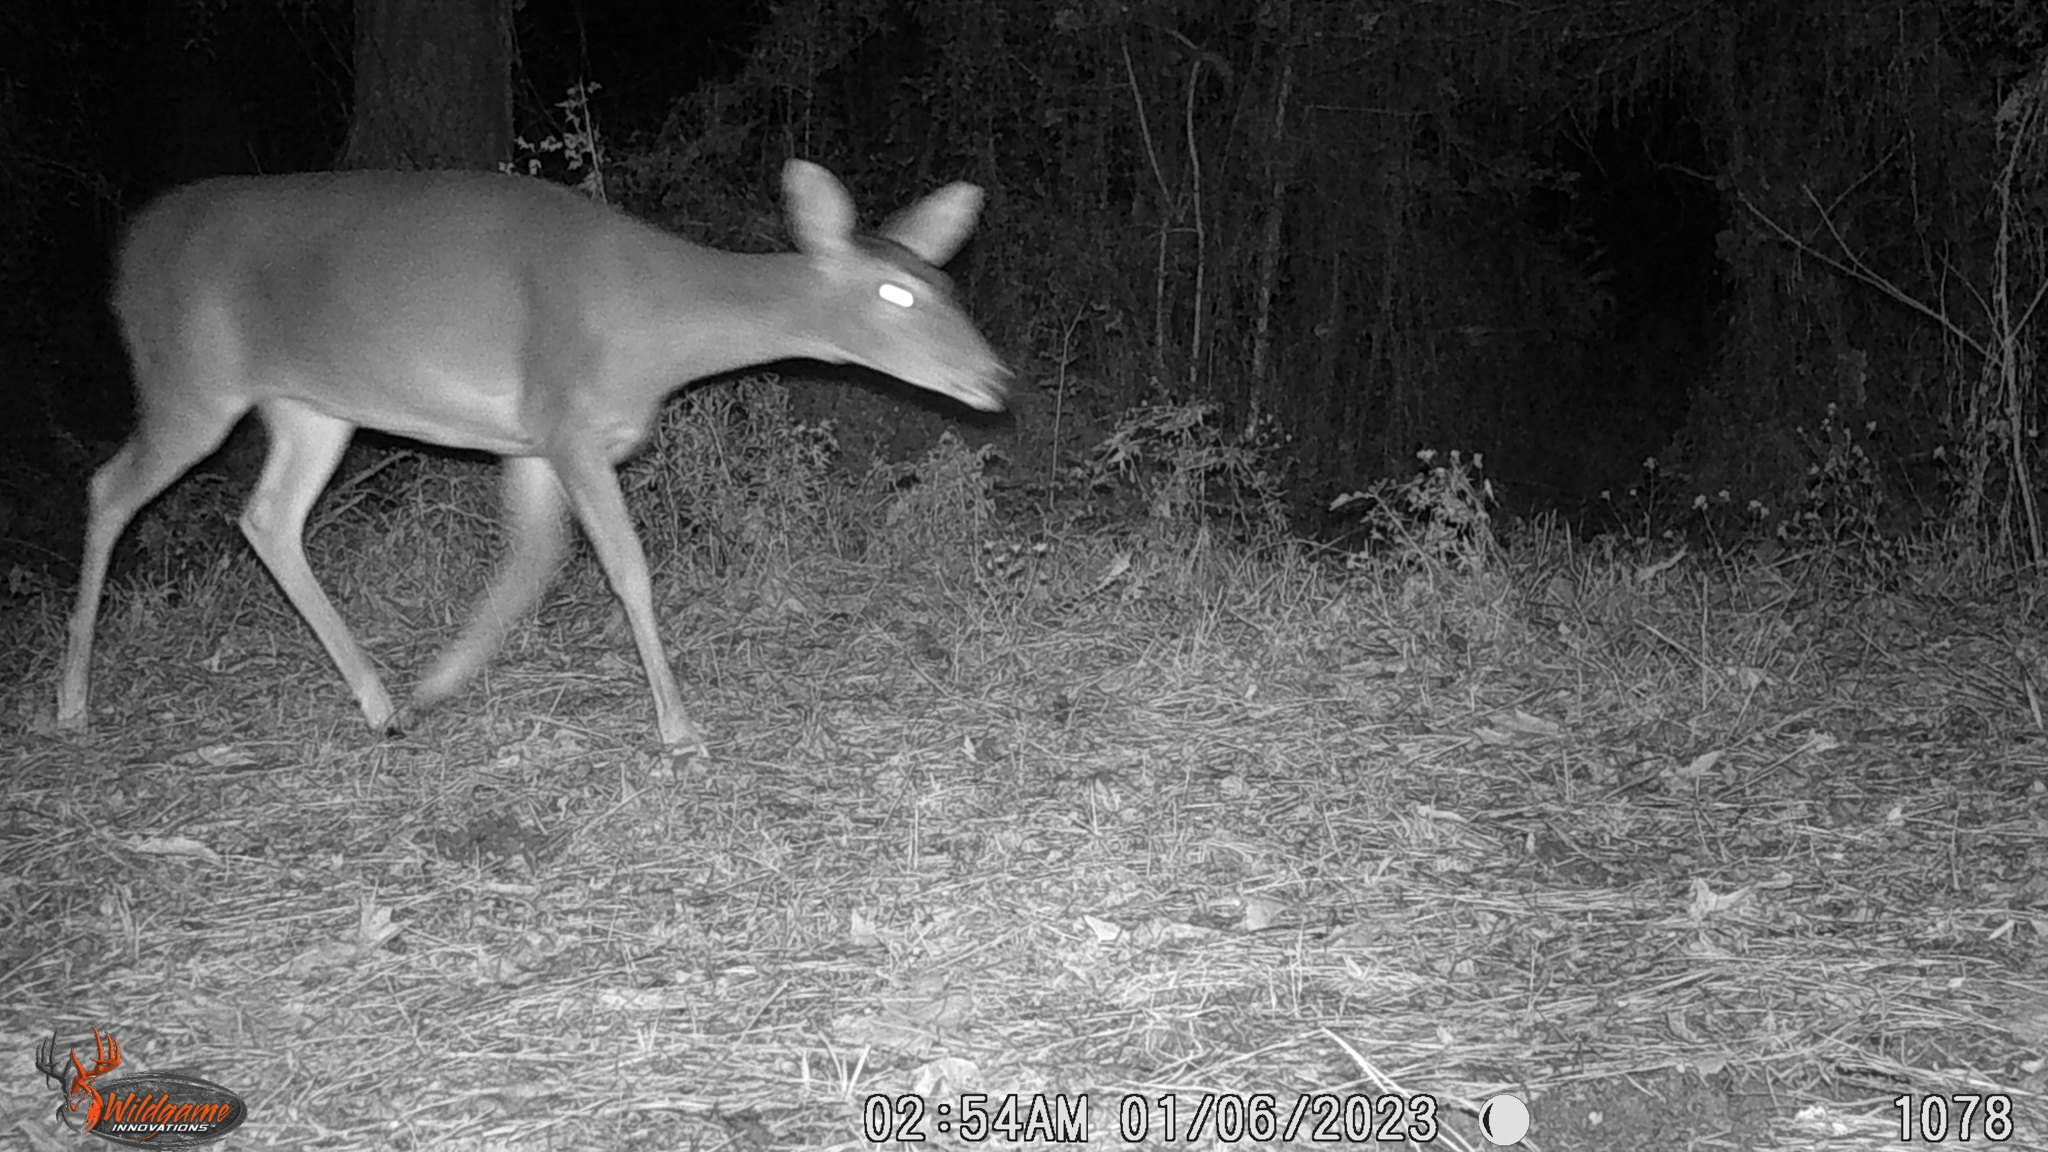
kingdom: Animalia
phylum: Chordata
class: Mammalia
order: Artiodactyla
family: Cervidae
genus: Odocoileus
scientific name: Odocoileus virginianus
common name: White-tailed deer
